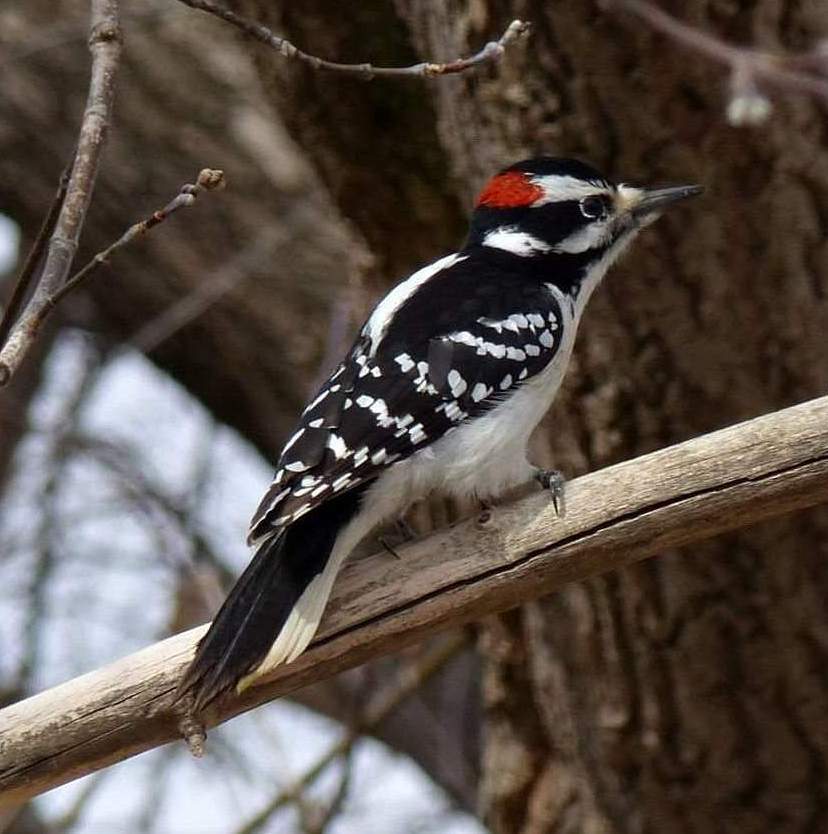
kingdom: Animalia
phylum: Chordata
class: Aves
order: Piciformes
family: Picidae
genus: Leuconotopicus
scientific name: Leuconotopicus villosus
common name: Hairy woodpecker
